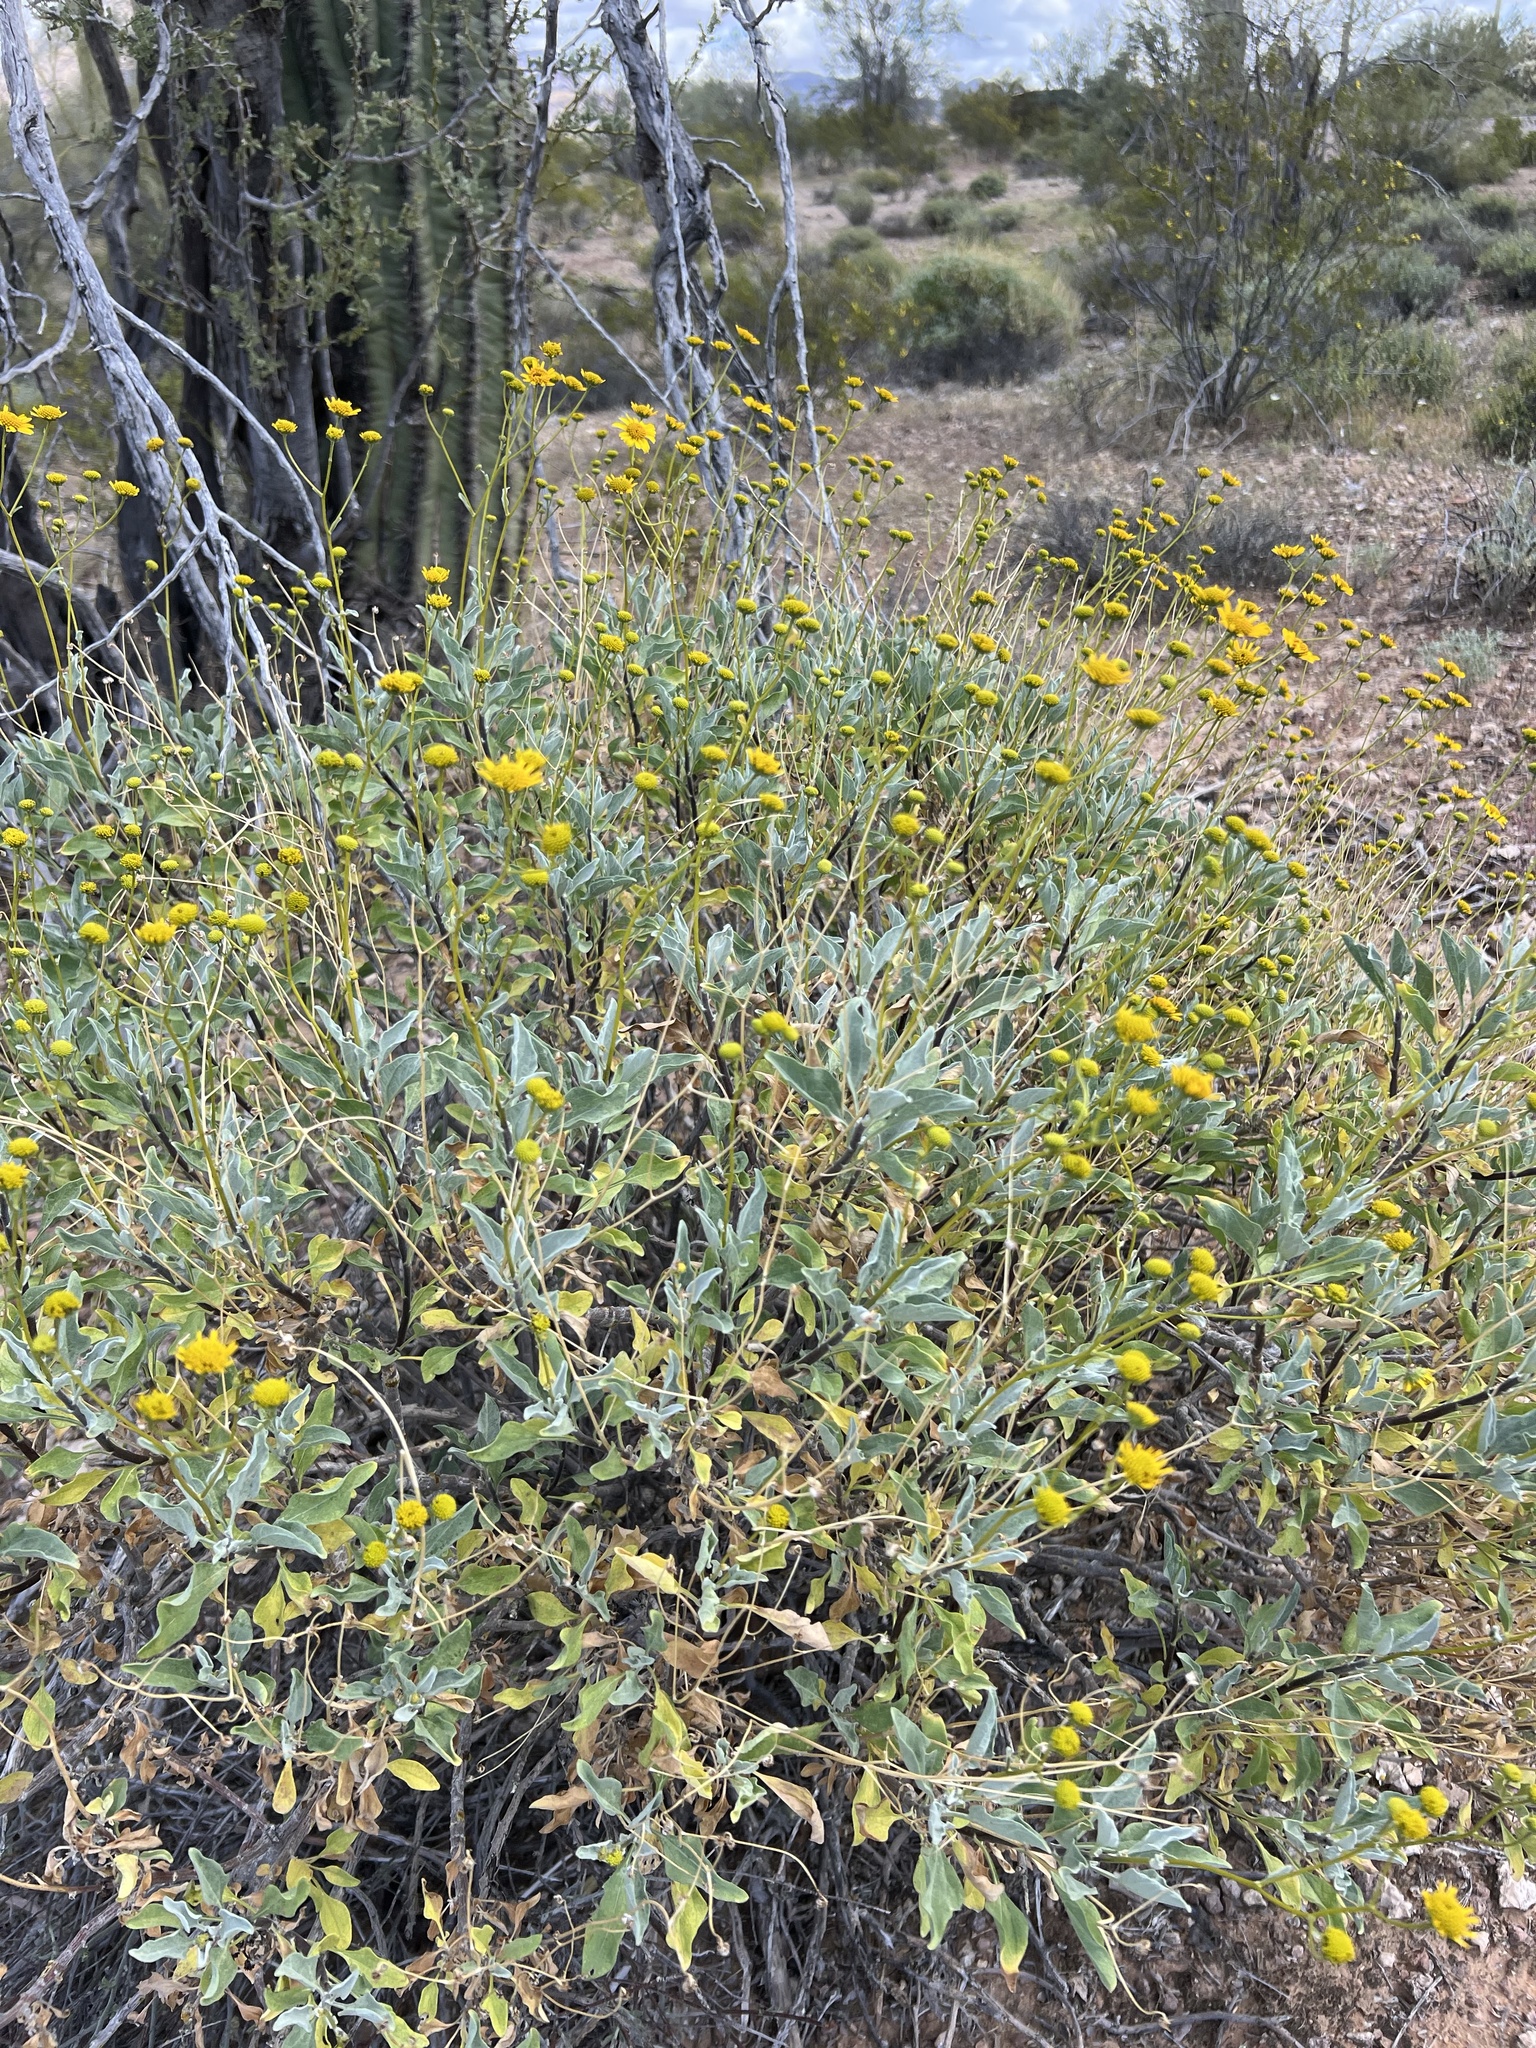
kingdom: Plantae
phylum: Tracheophyta
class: Magnoliopsida
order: Asterales
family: Asteraceae
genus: Encelia
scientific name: Encelia farinosa
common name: Brittlebush
